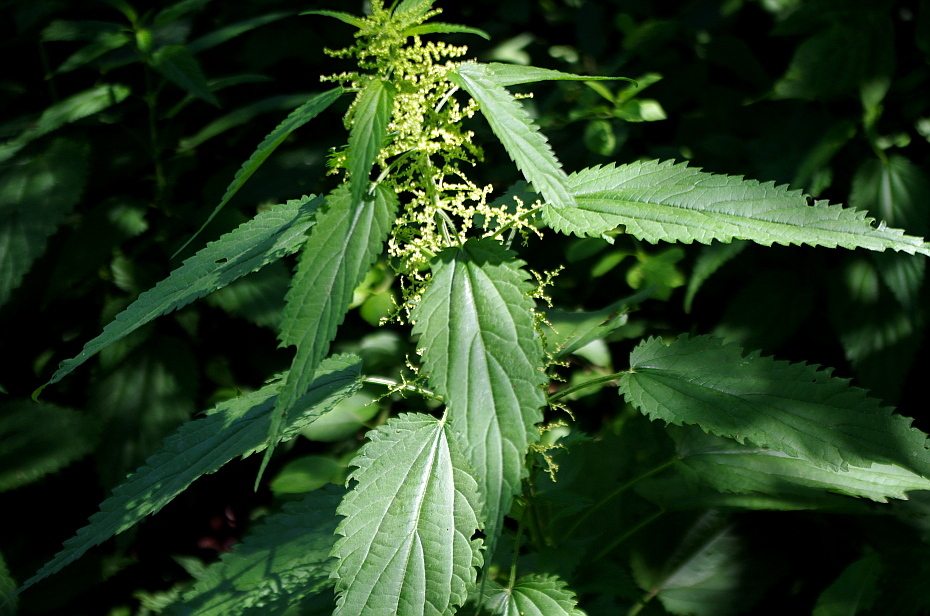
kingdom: Plantae
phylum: Tracheophyta
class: Magnoliopsida
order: Rosales
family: Urticaceae
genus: Urtica
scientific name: Urtica dioica
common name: Common nettle
